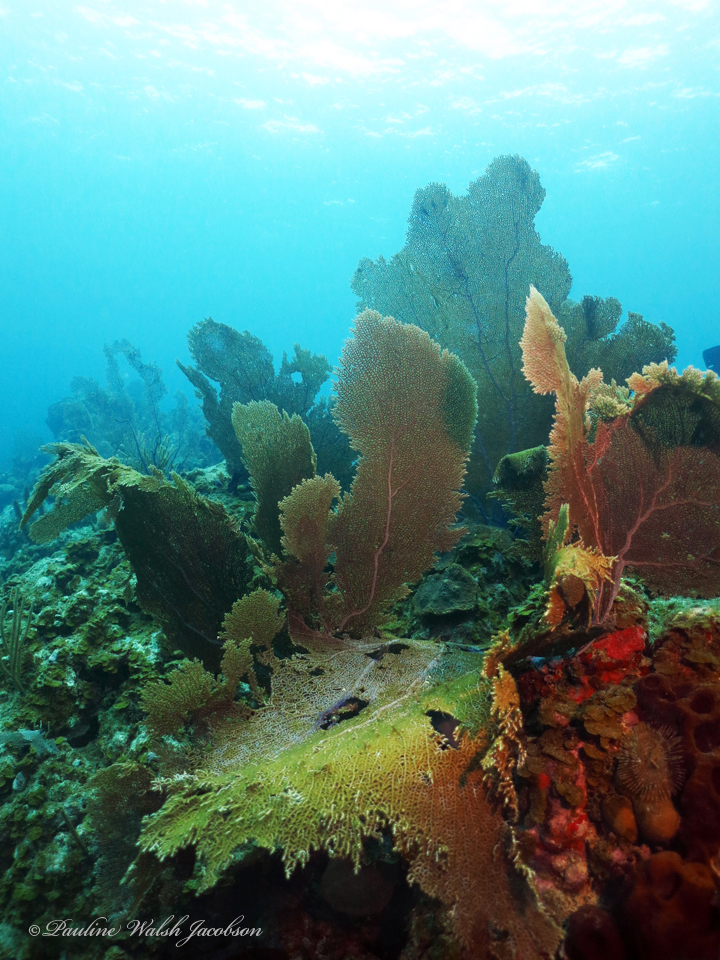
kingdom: Animalia
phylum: Cnidaria
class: Anthozoa
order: Malacalcyonacea
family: Gorgoniidae
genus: Gorgonia
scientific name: Gorgonia ventalina
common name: Common sea fan
